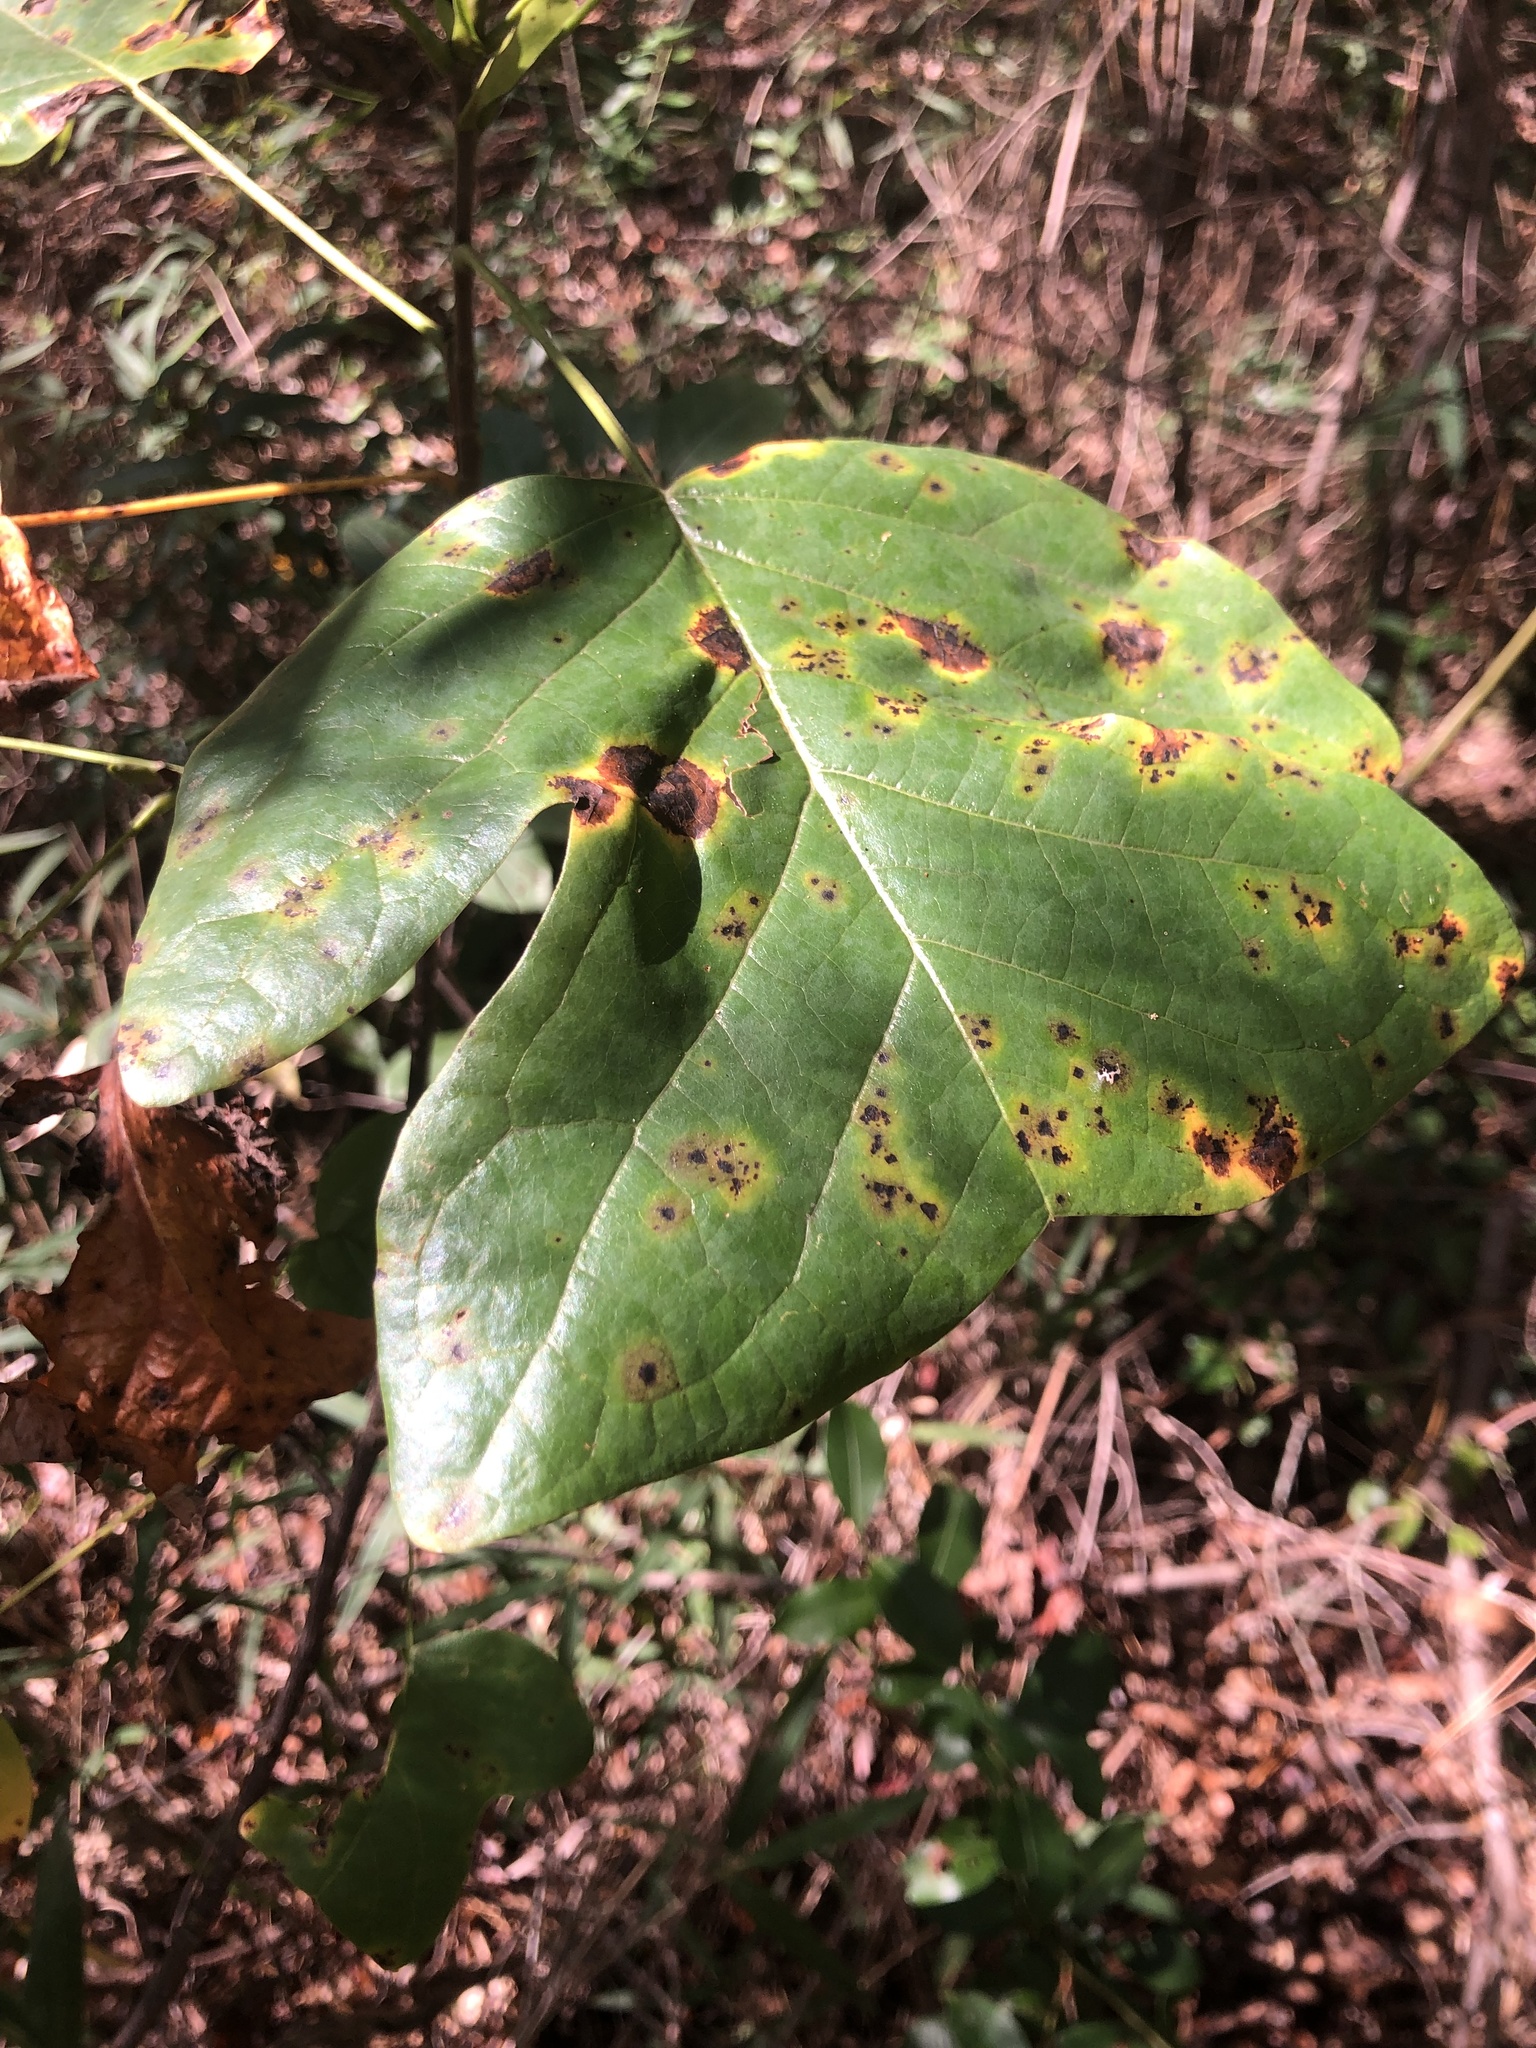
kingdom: Plantae
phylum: Tracheophyta
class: Magnoliopsida
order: Magnoliales
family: Magnoliaceae
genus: Liriodendron
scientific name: Liriodendron tulipifera
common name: Tulip tree
